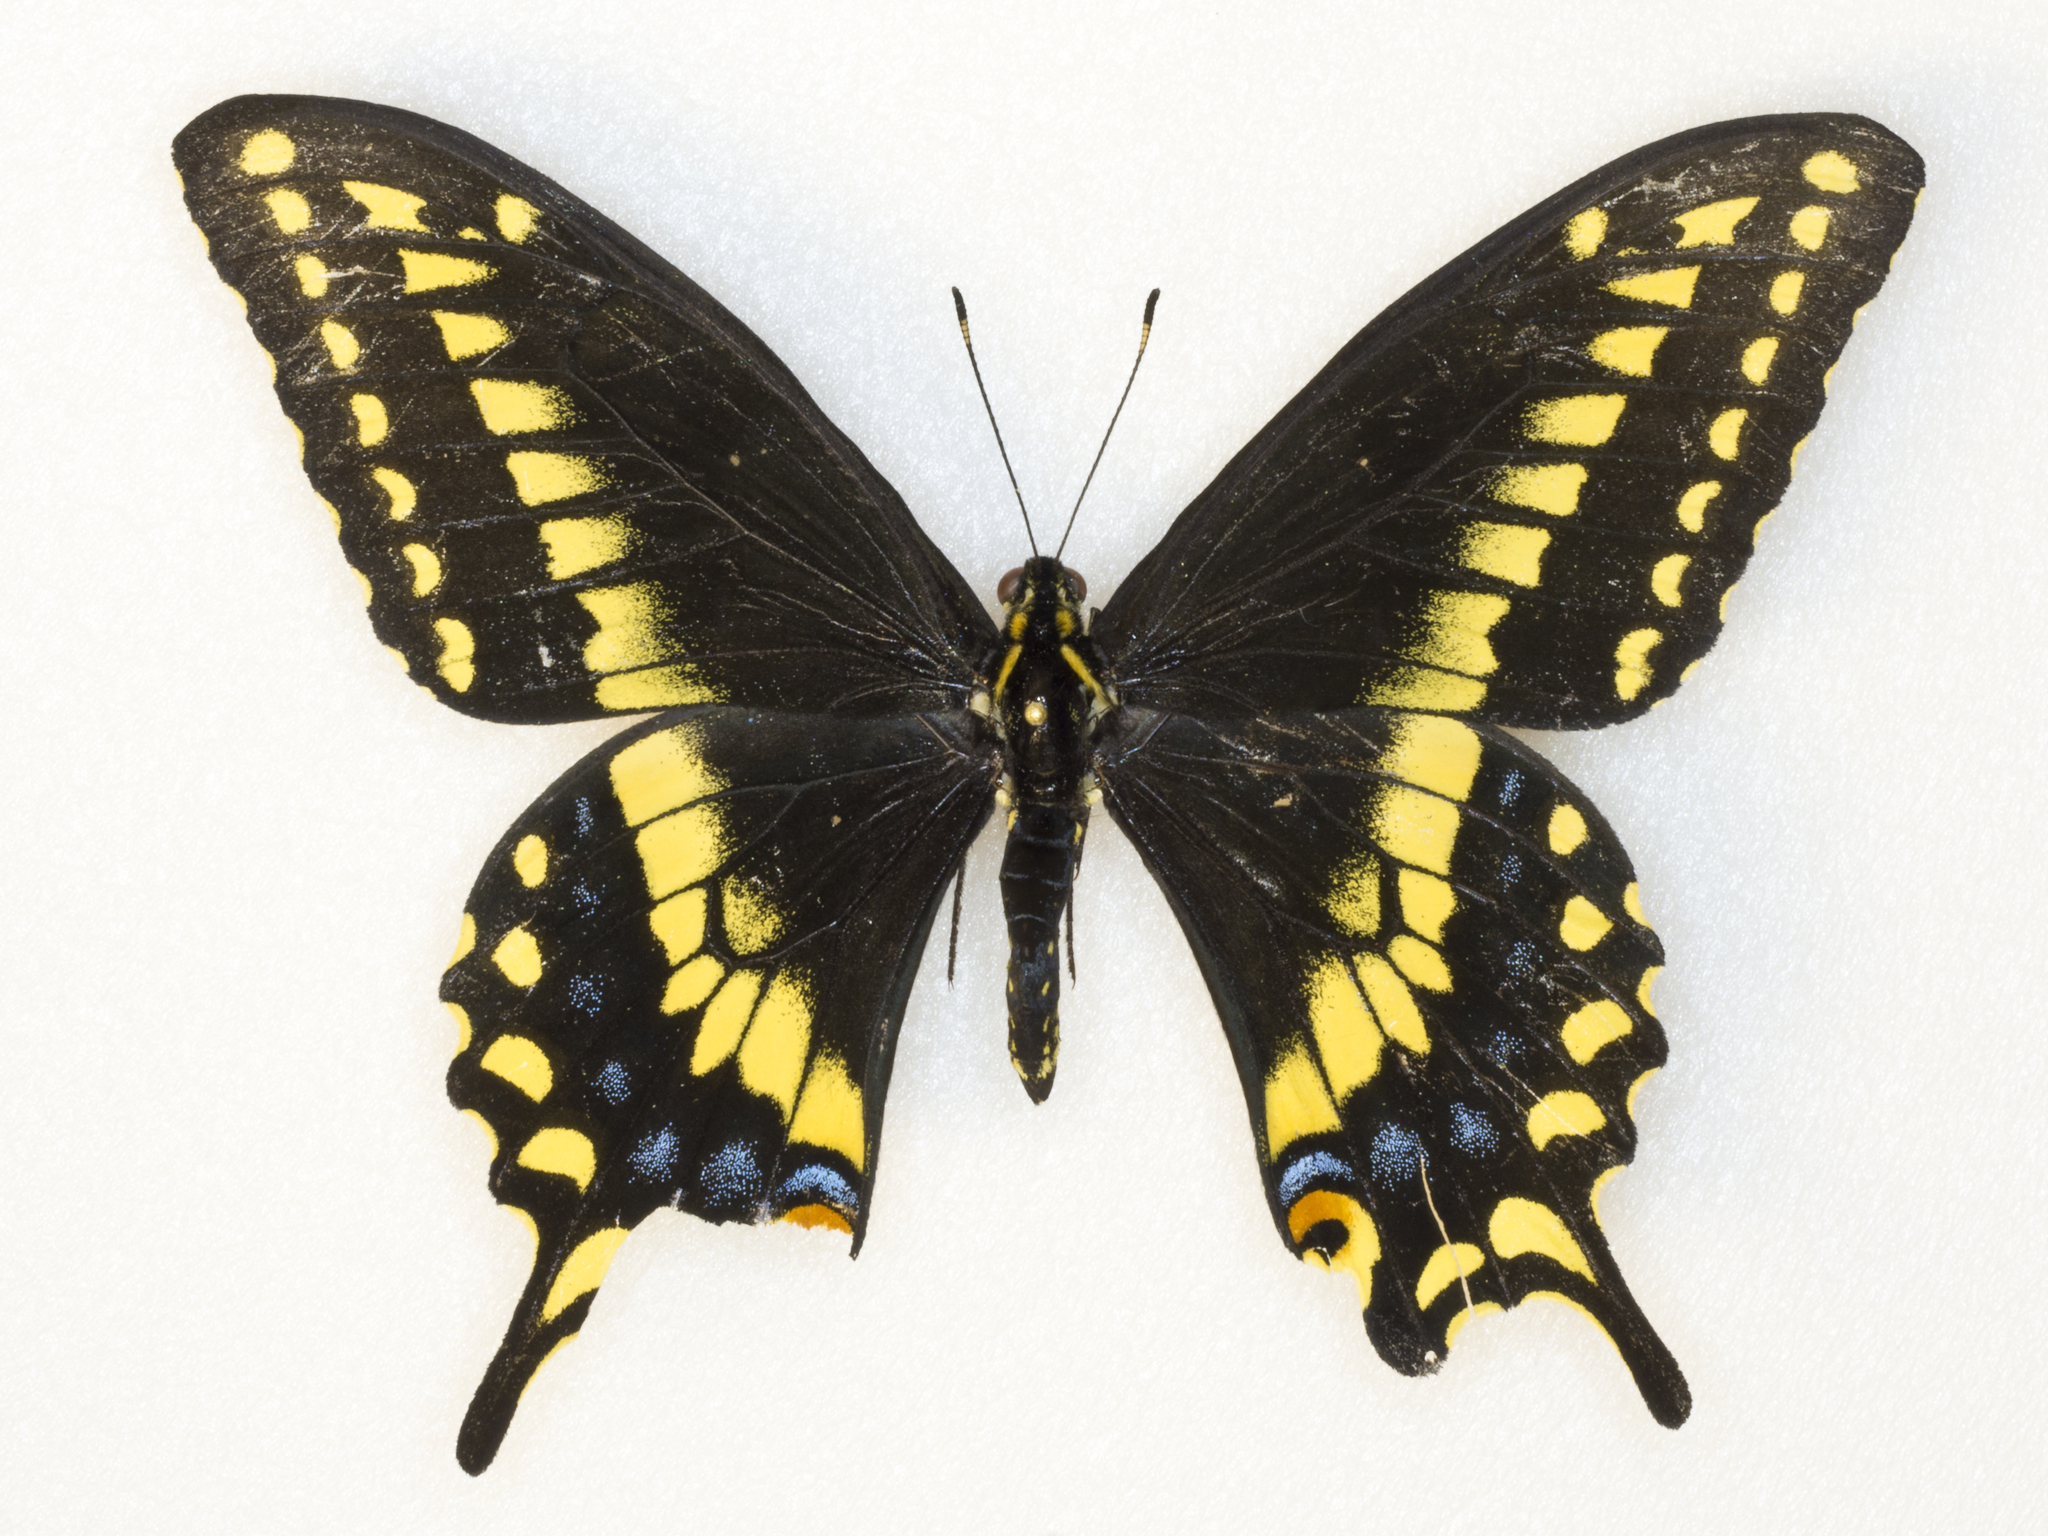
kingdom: Animalia
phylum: Arthropoda
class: Insecta
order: Lepidoptera
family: Papilionidae
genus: Papilio
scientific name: Papilio
